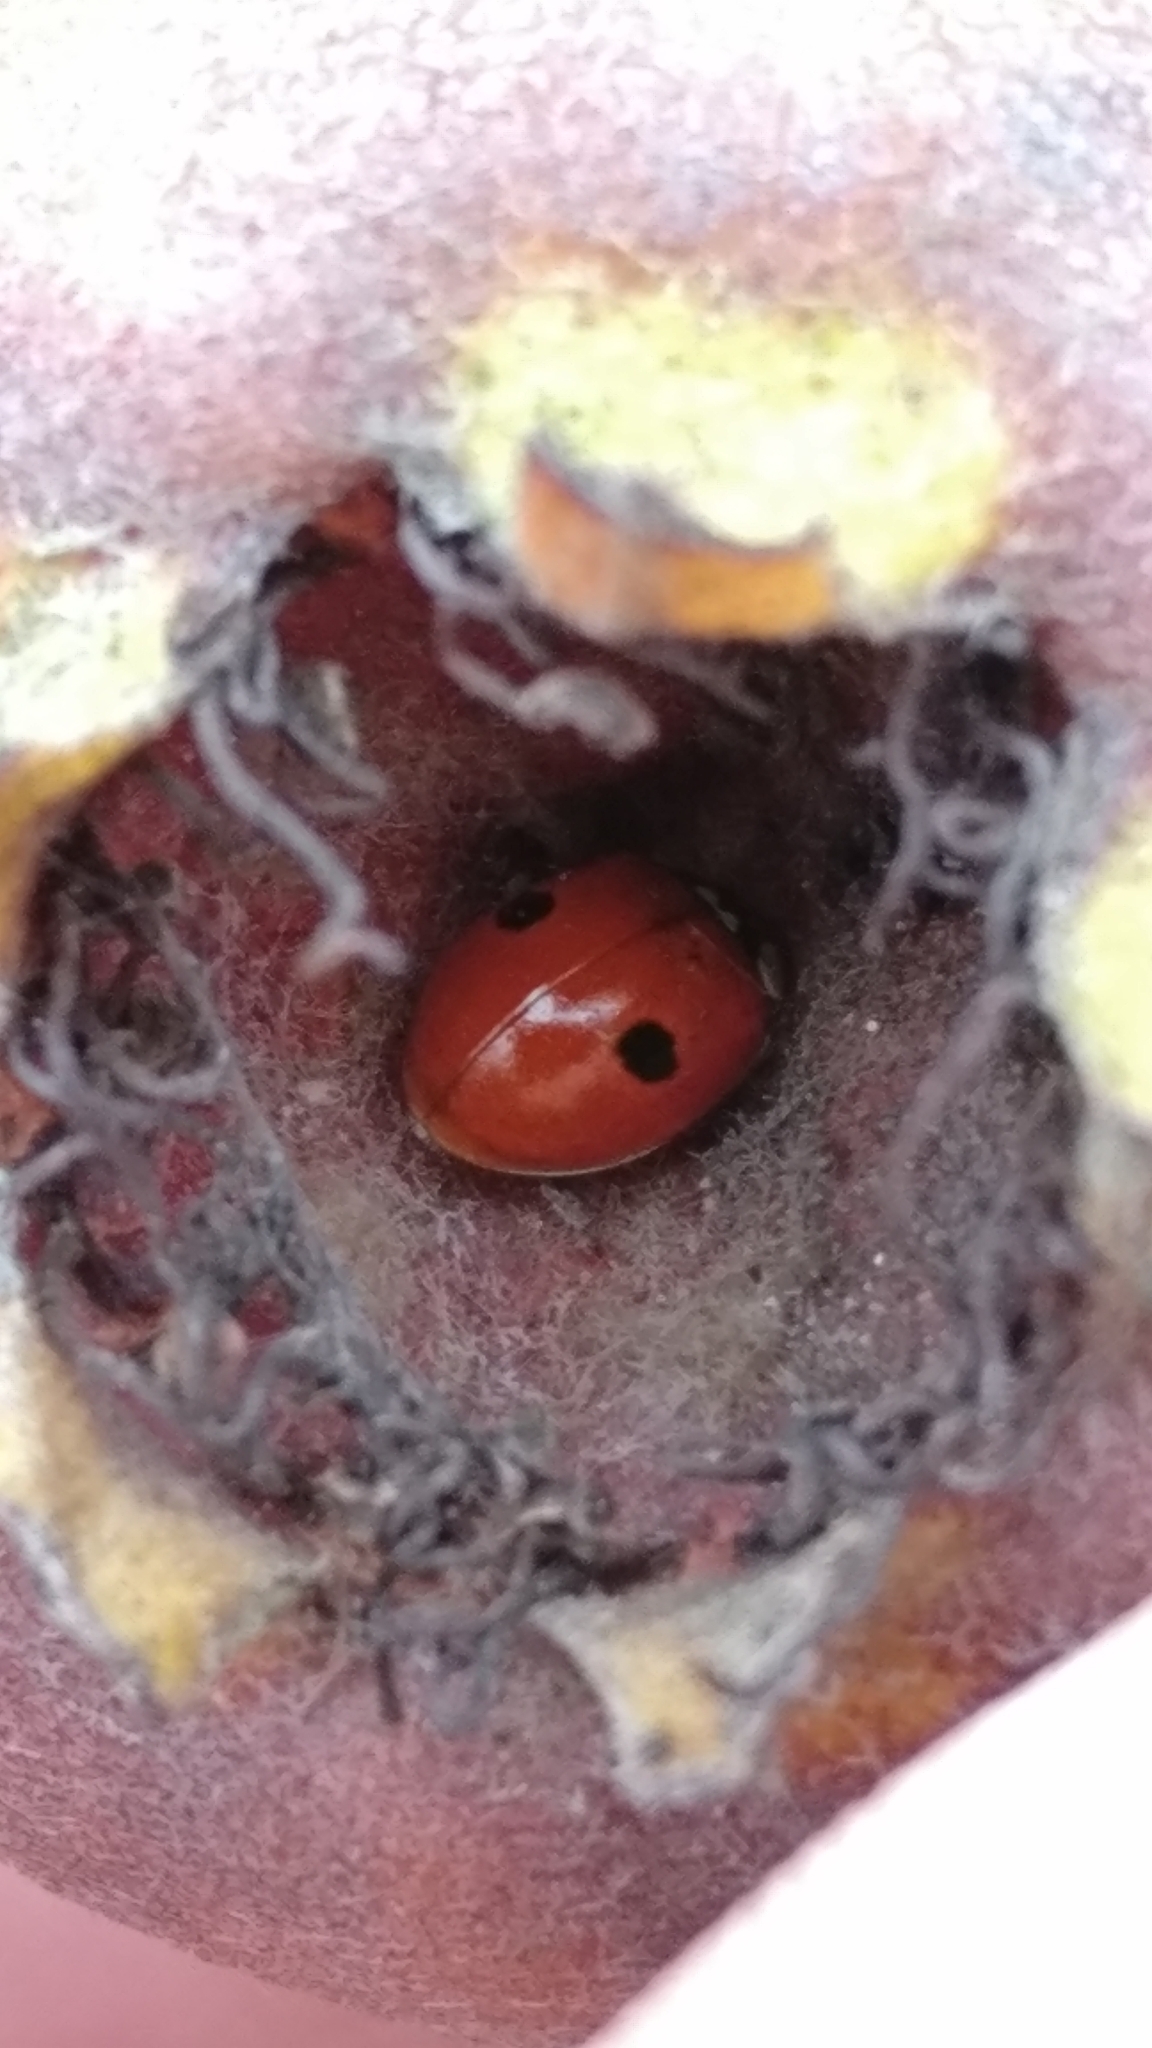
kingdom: Animalia
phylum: Arthropoda
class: Insecta
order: Coleoptera
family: Coccinellidae
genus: Adalia
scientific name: Adalia bipunctata
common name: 2-spot ladybird
